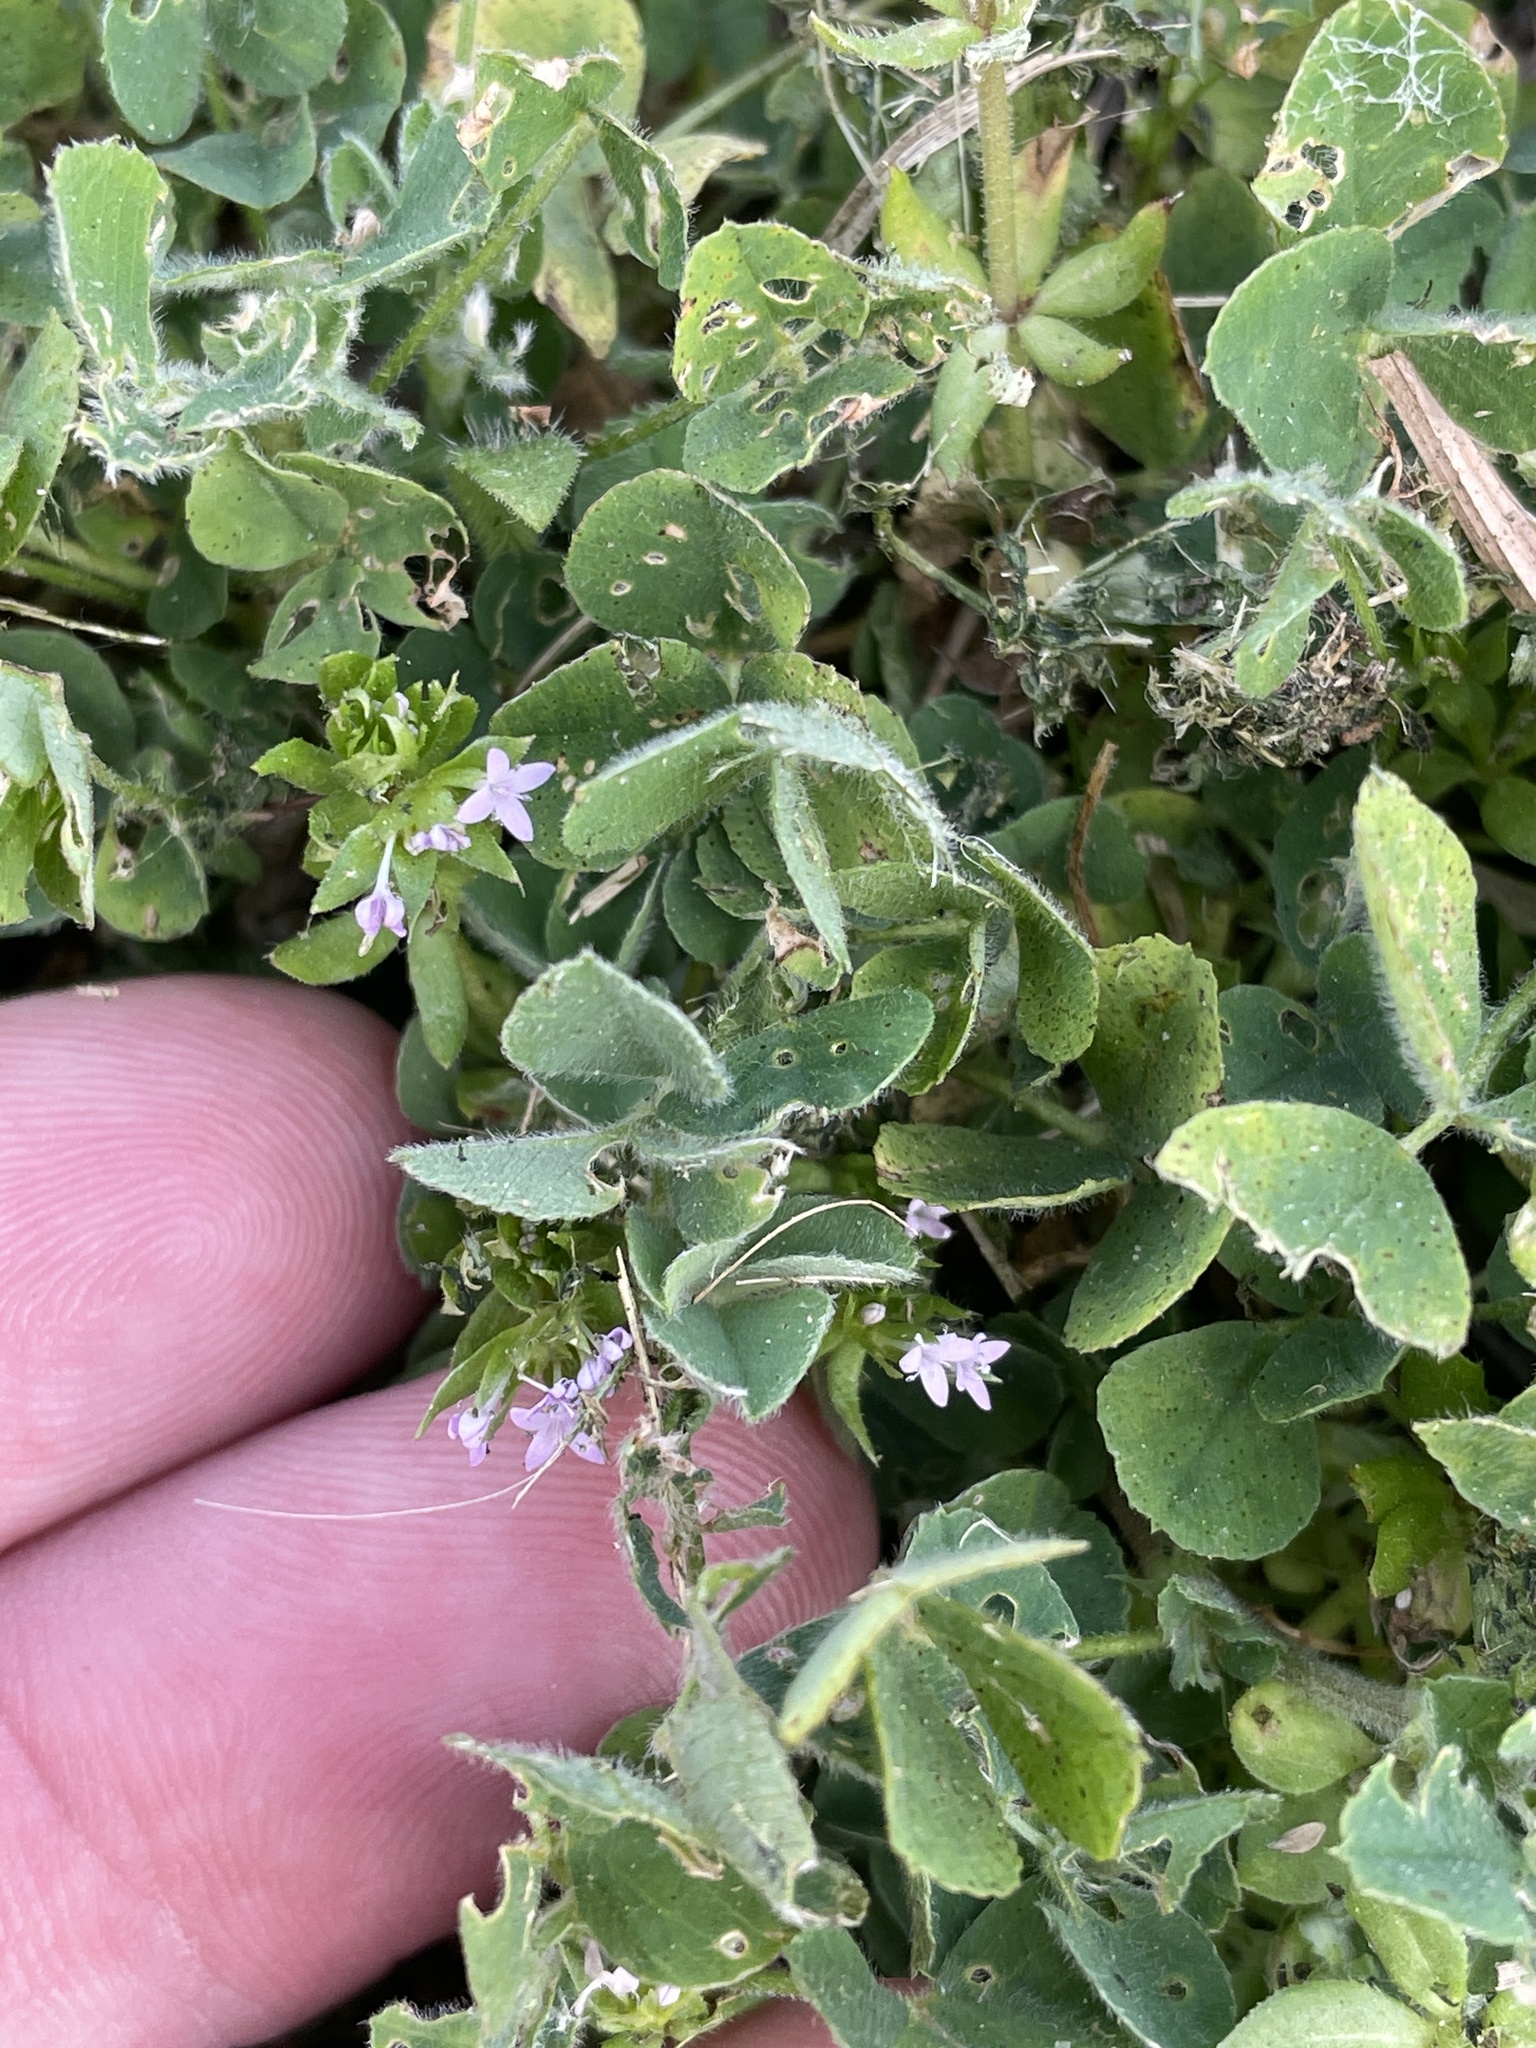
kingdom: Plantae
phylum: Tracheophyta
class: Magnoliopsida
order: Gentianales
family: Rubiaceae
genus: Sherardia
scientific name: Sherardia arvensis
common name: Field madder
